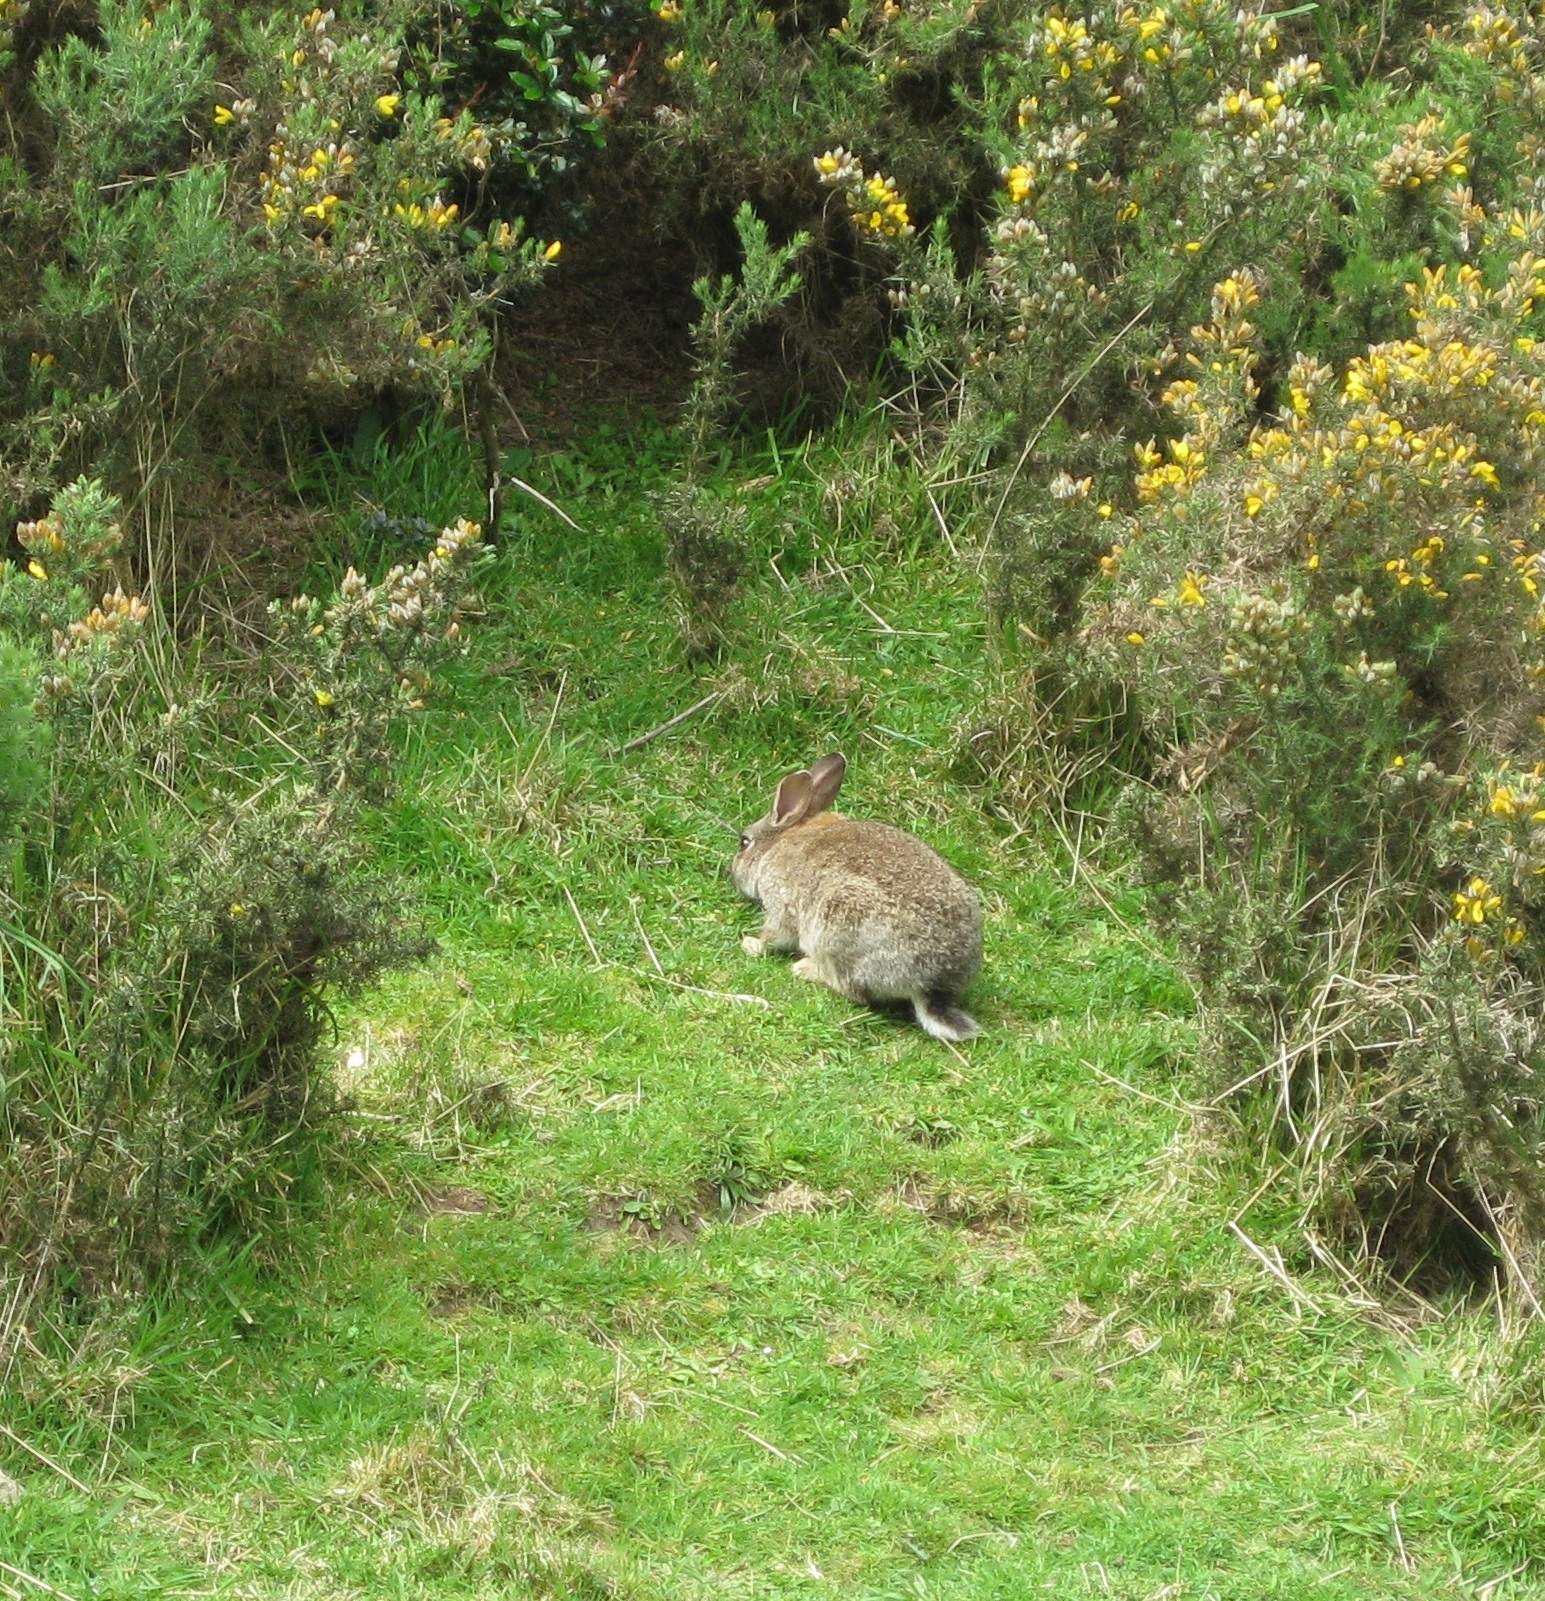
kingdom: Animalia
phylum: Chordata
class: Mammalia
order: Lagomorpha
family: Leporidae
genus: Oryctolagus
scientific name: Oryctolagus cuniculus
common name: European rabbit
